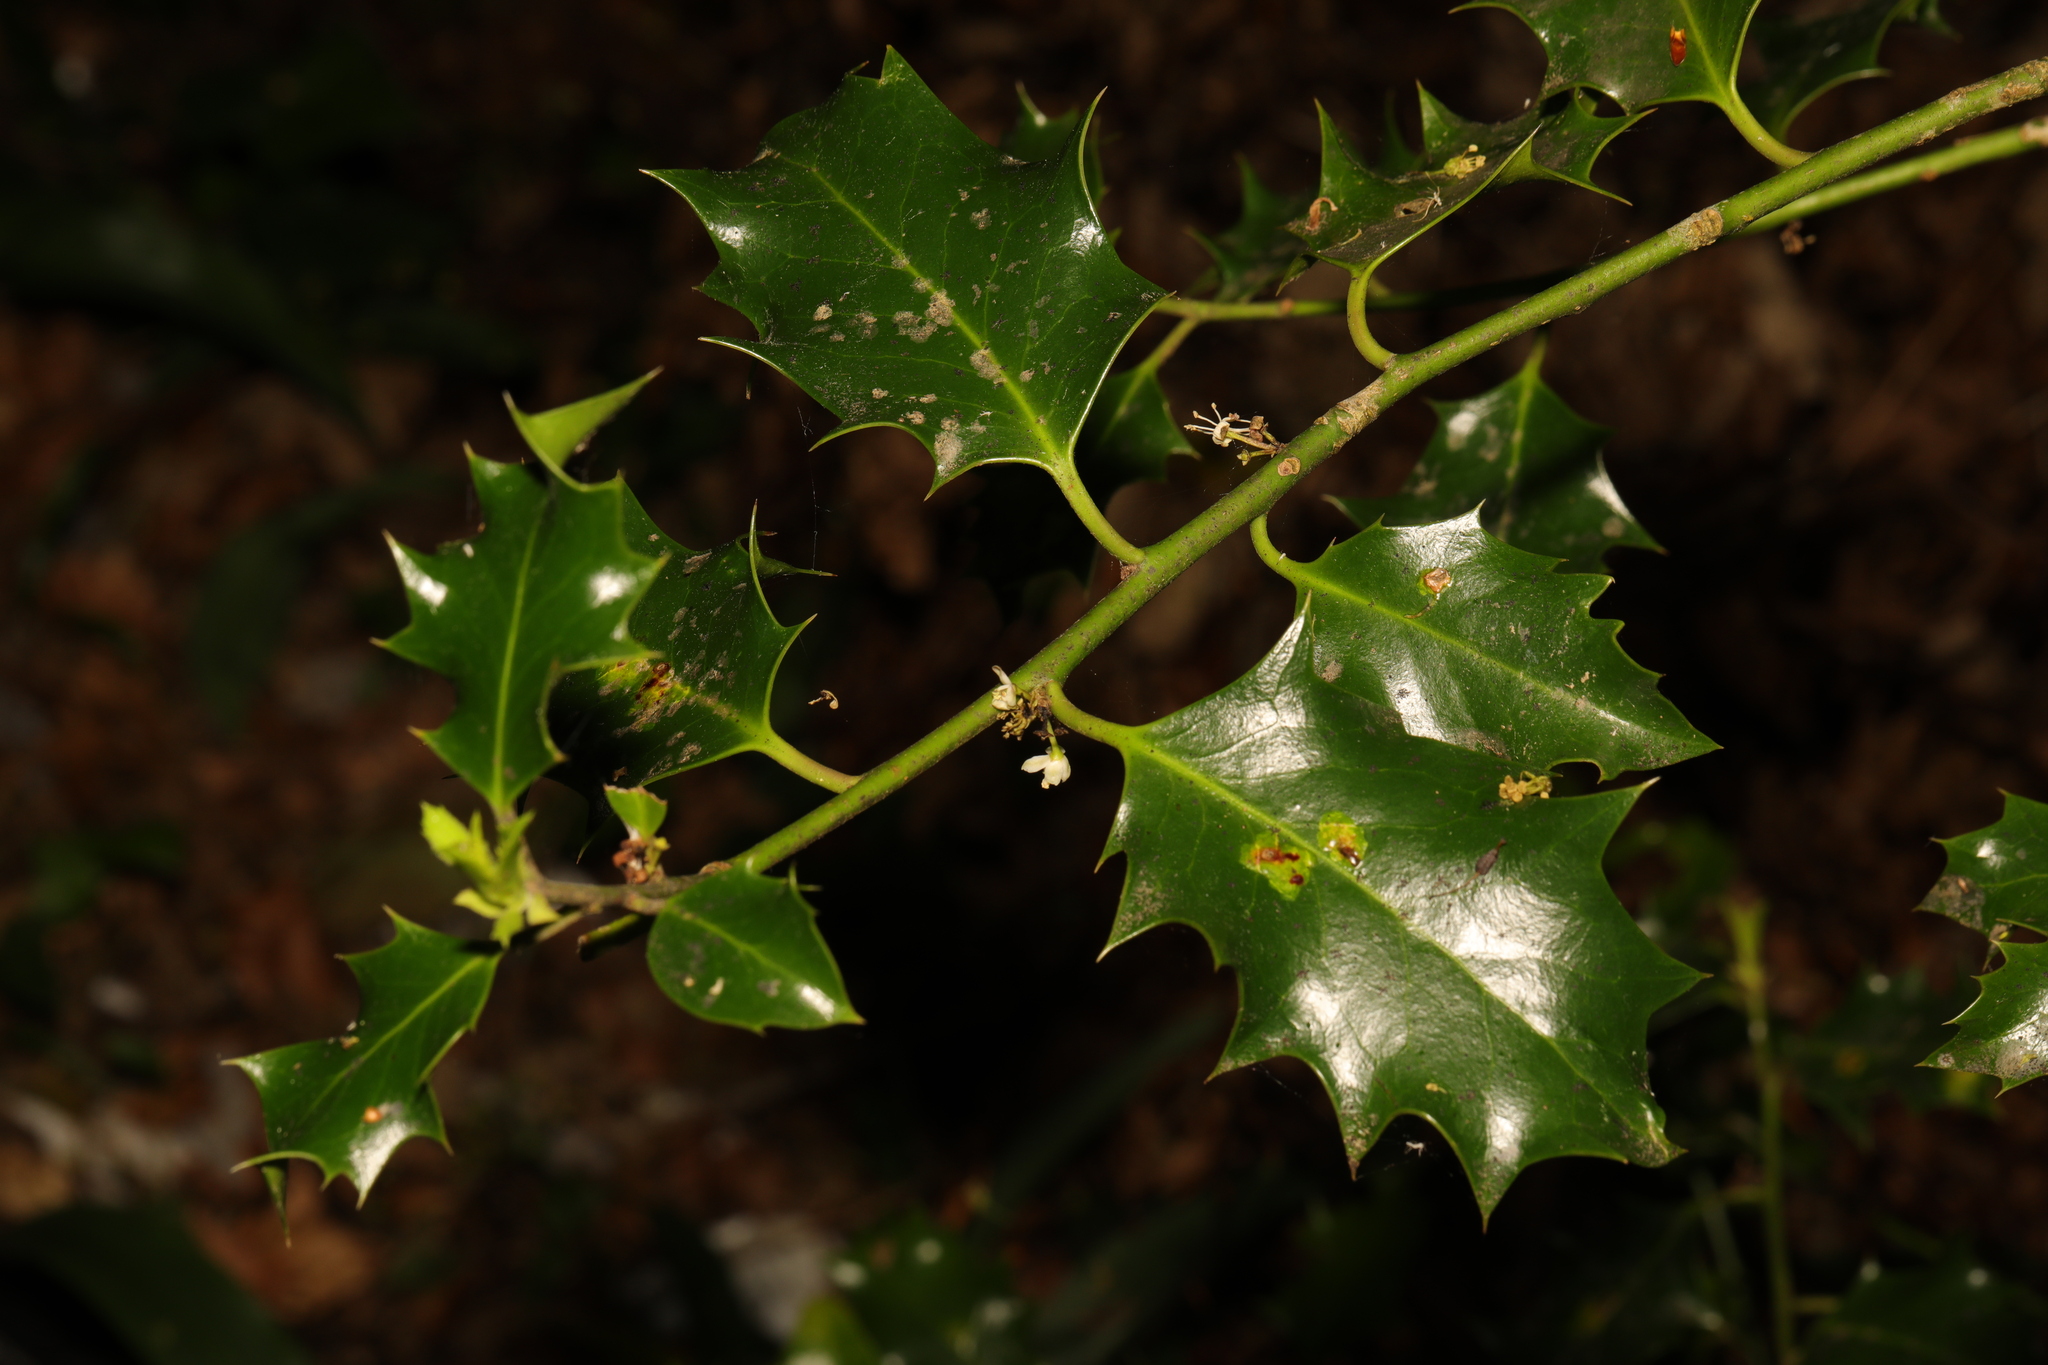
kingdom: Plantae
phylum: Tracheophyta
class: Magnoliopsida
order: Aquifoliales
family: Aquifoliaceae
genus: Ilex
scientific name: Ilex aquifolium
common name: English holly
